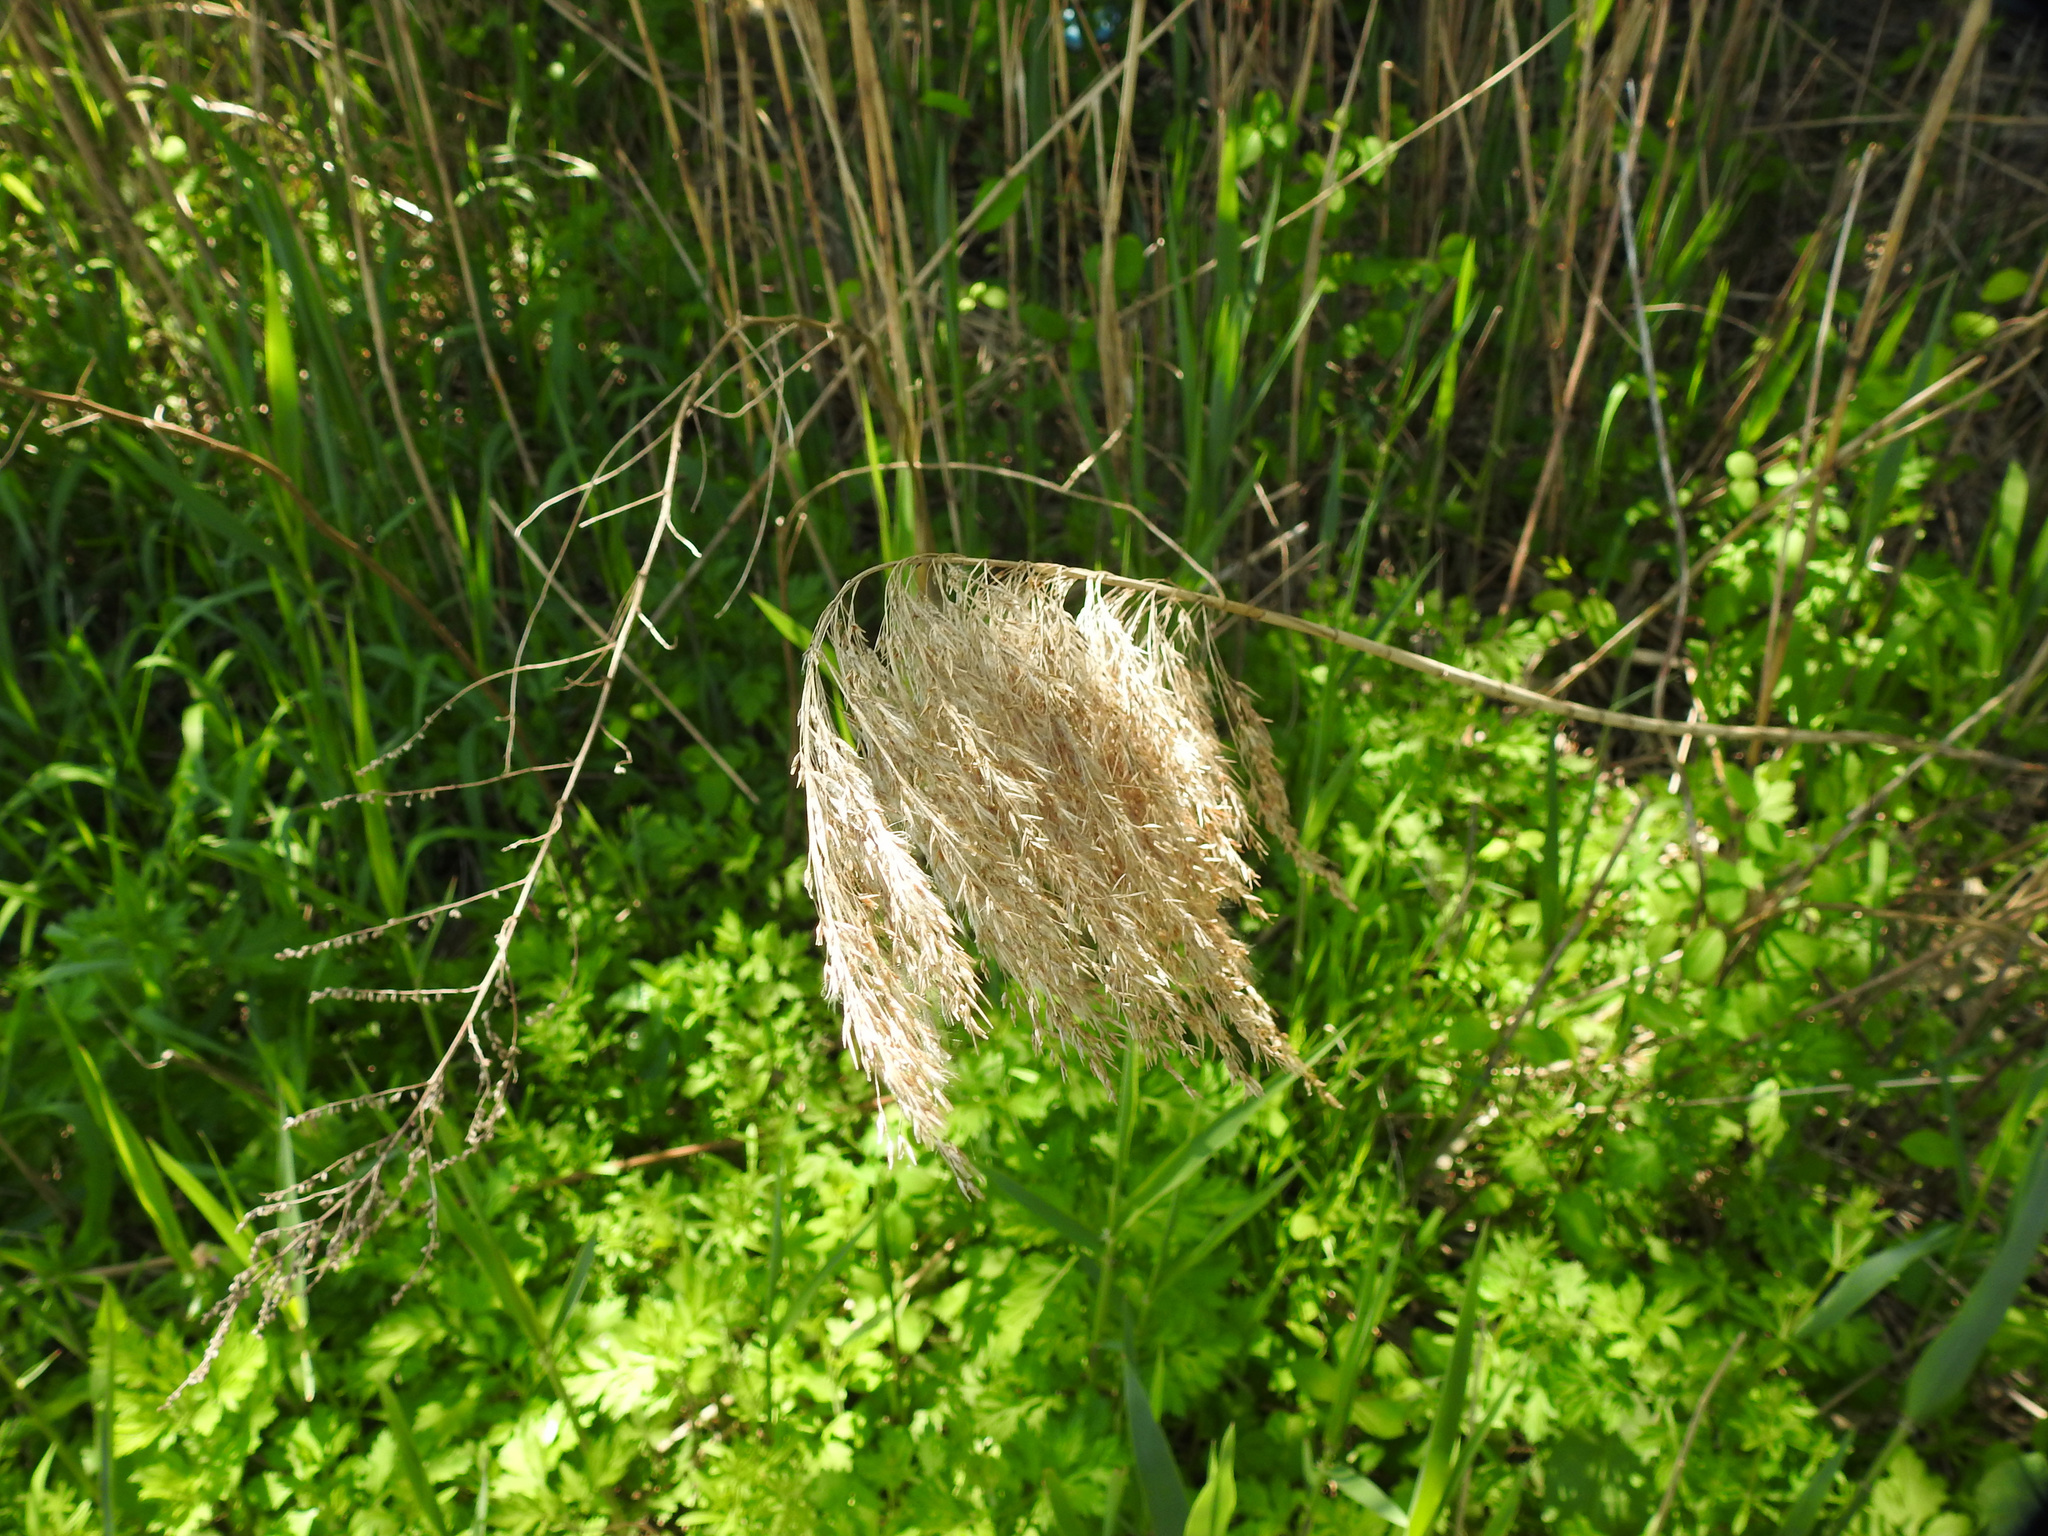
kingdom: Plantae
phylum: Tracheophyta
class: Liliopsida
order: Poales
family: Poaceae
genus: Phragmites
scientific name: Phragmites australis
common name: Common reed
